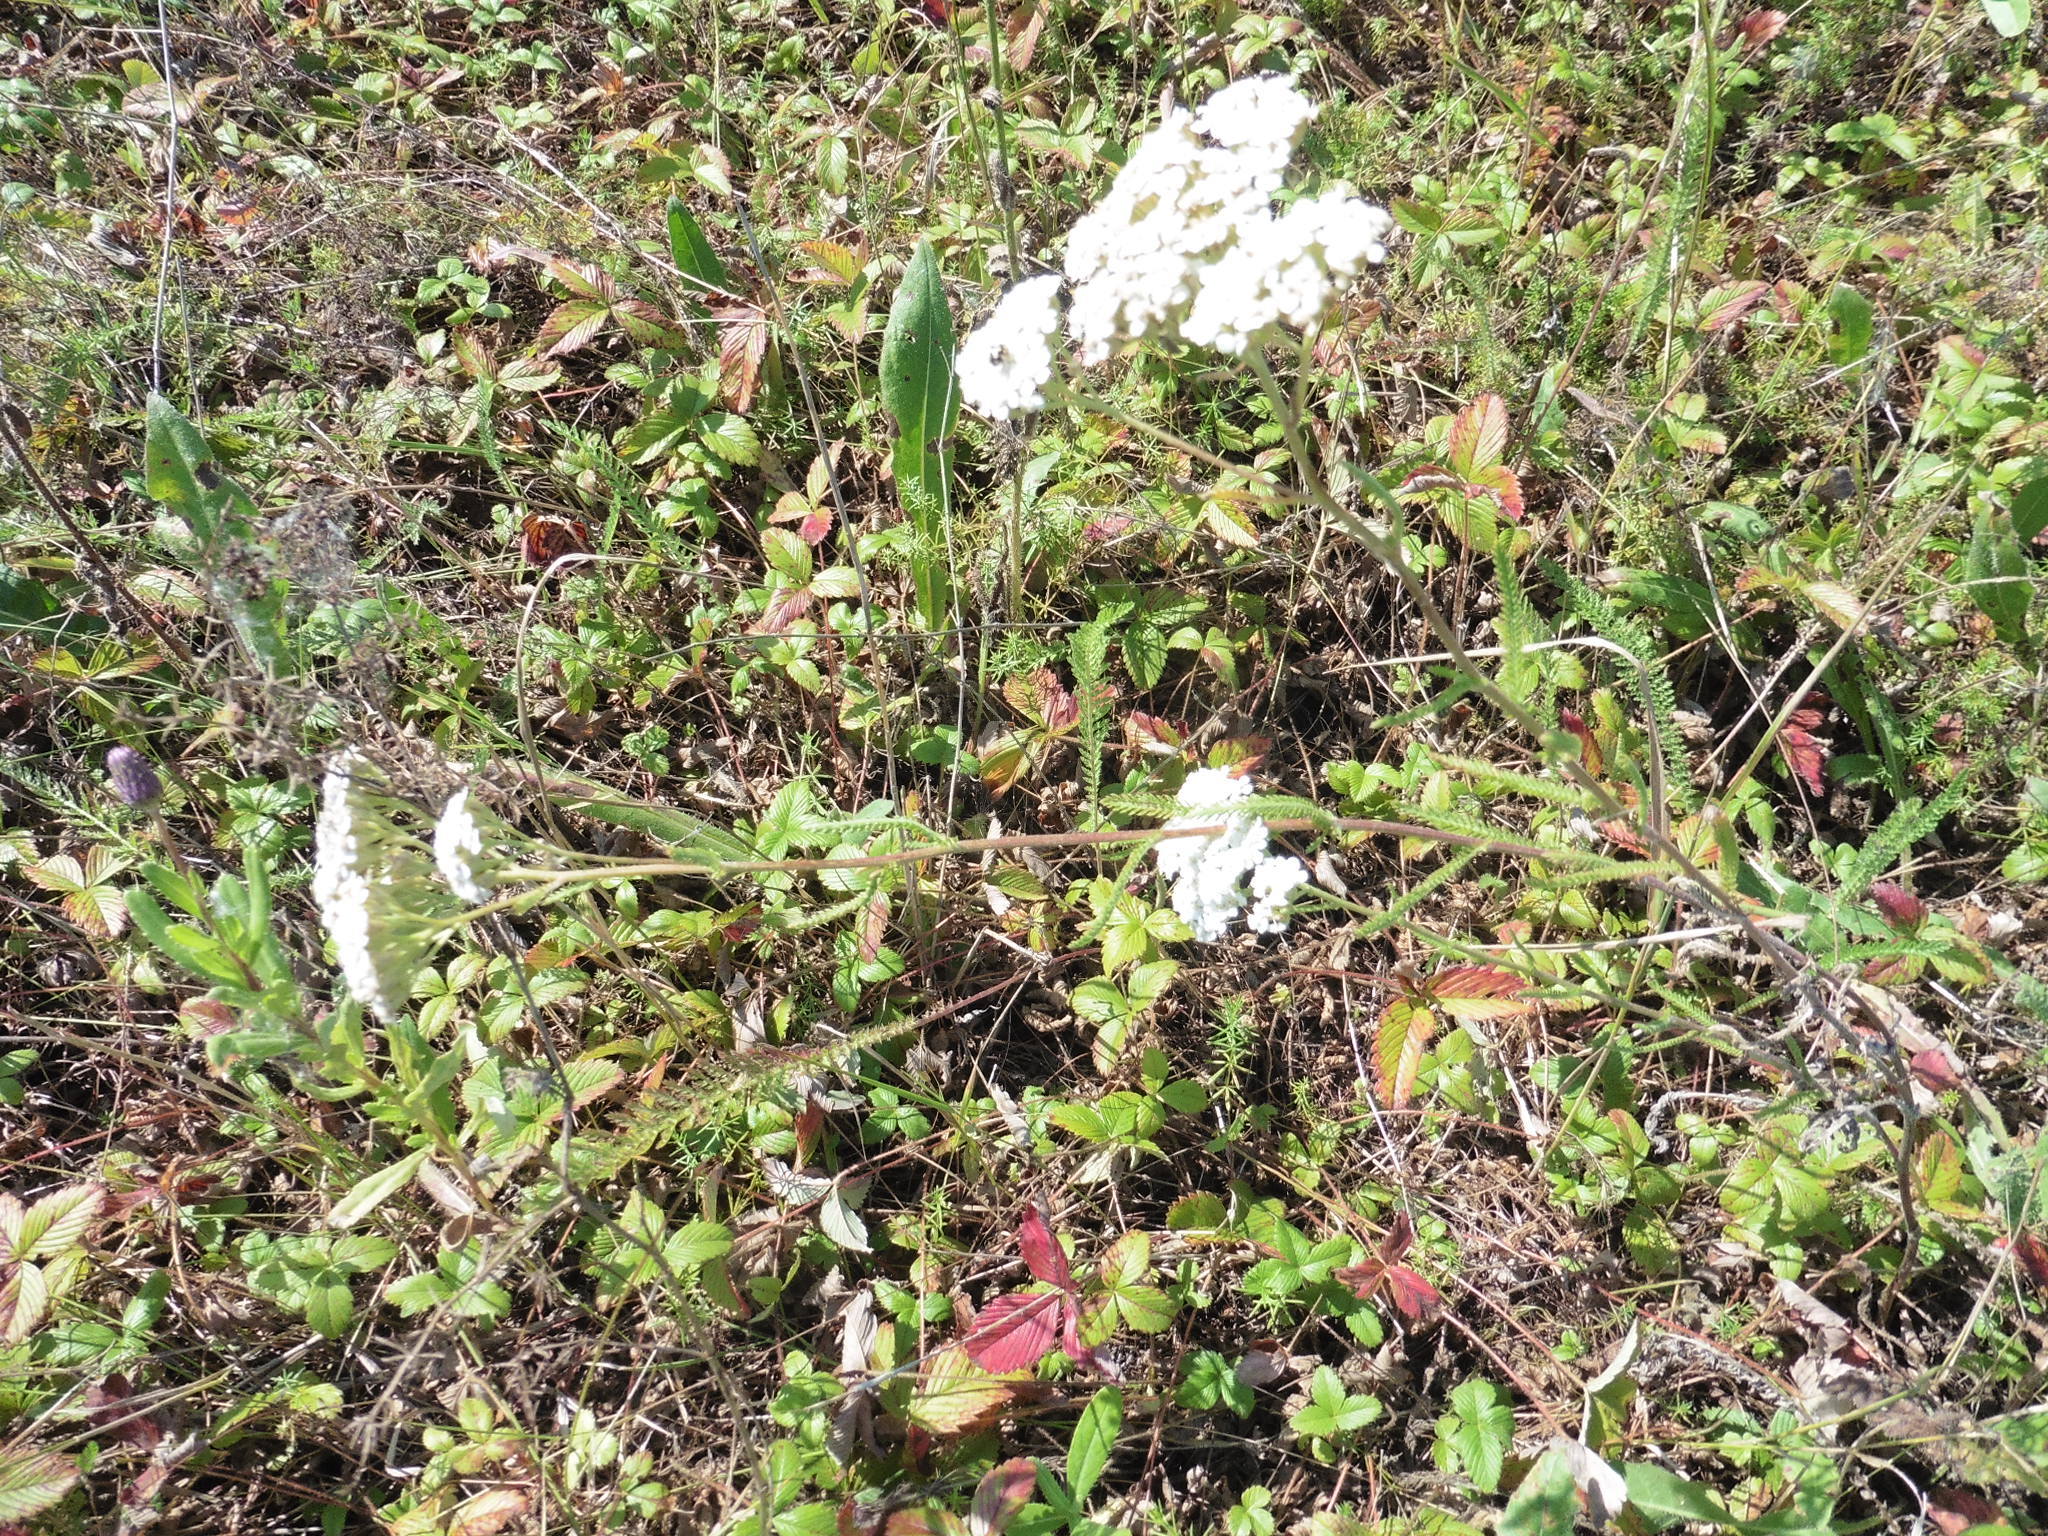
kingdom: Plantae
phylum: Tracheophyta
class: Magnoliopsida
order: Asterales
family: Asteraceae
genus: Achillea
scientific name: Achillea millefolium
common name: Yarrow
